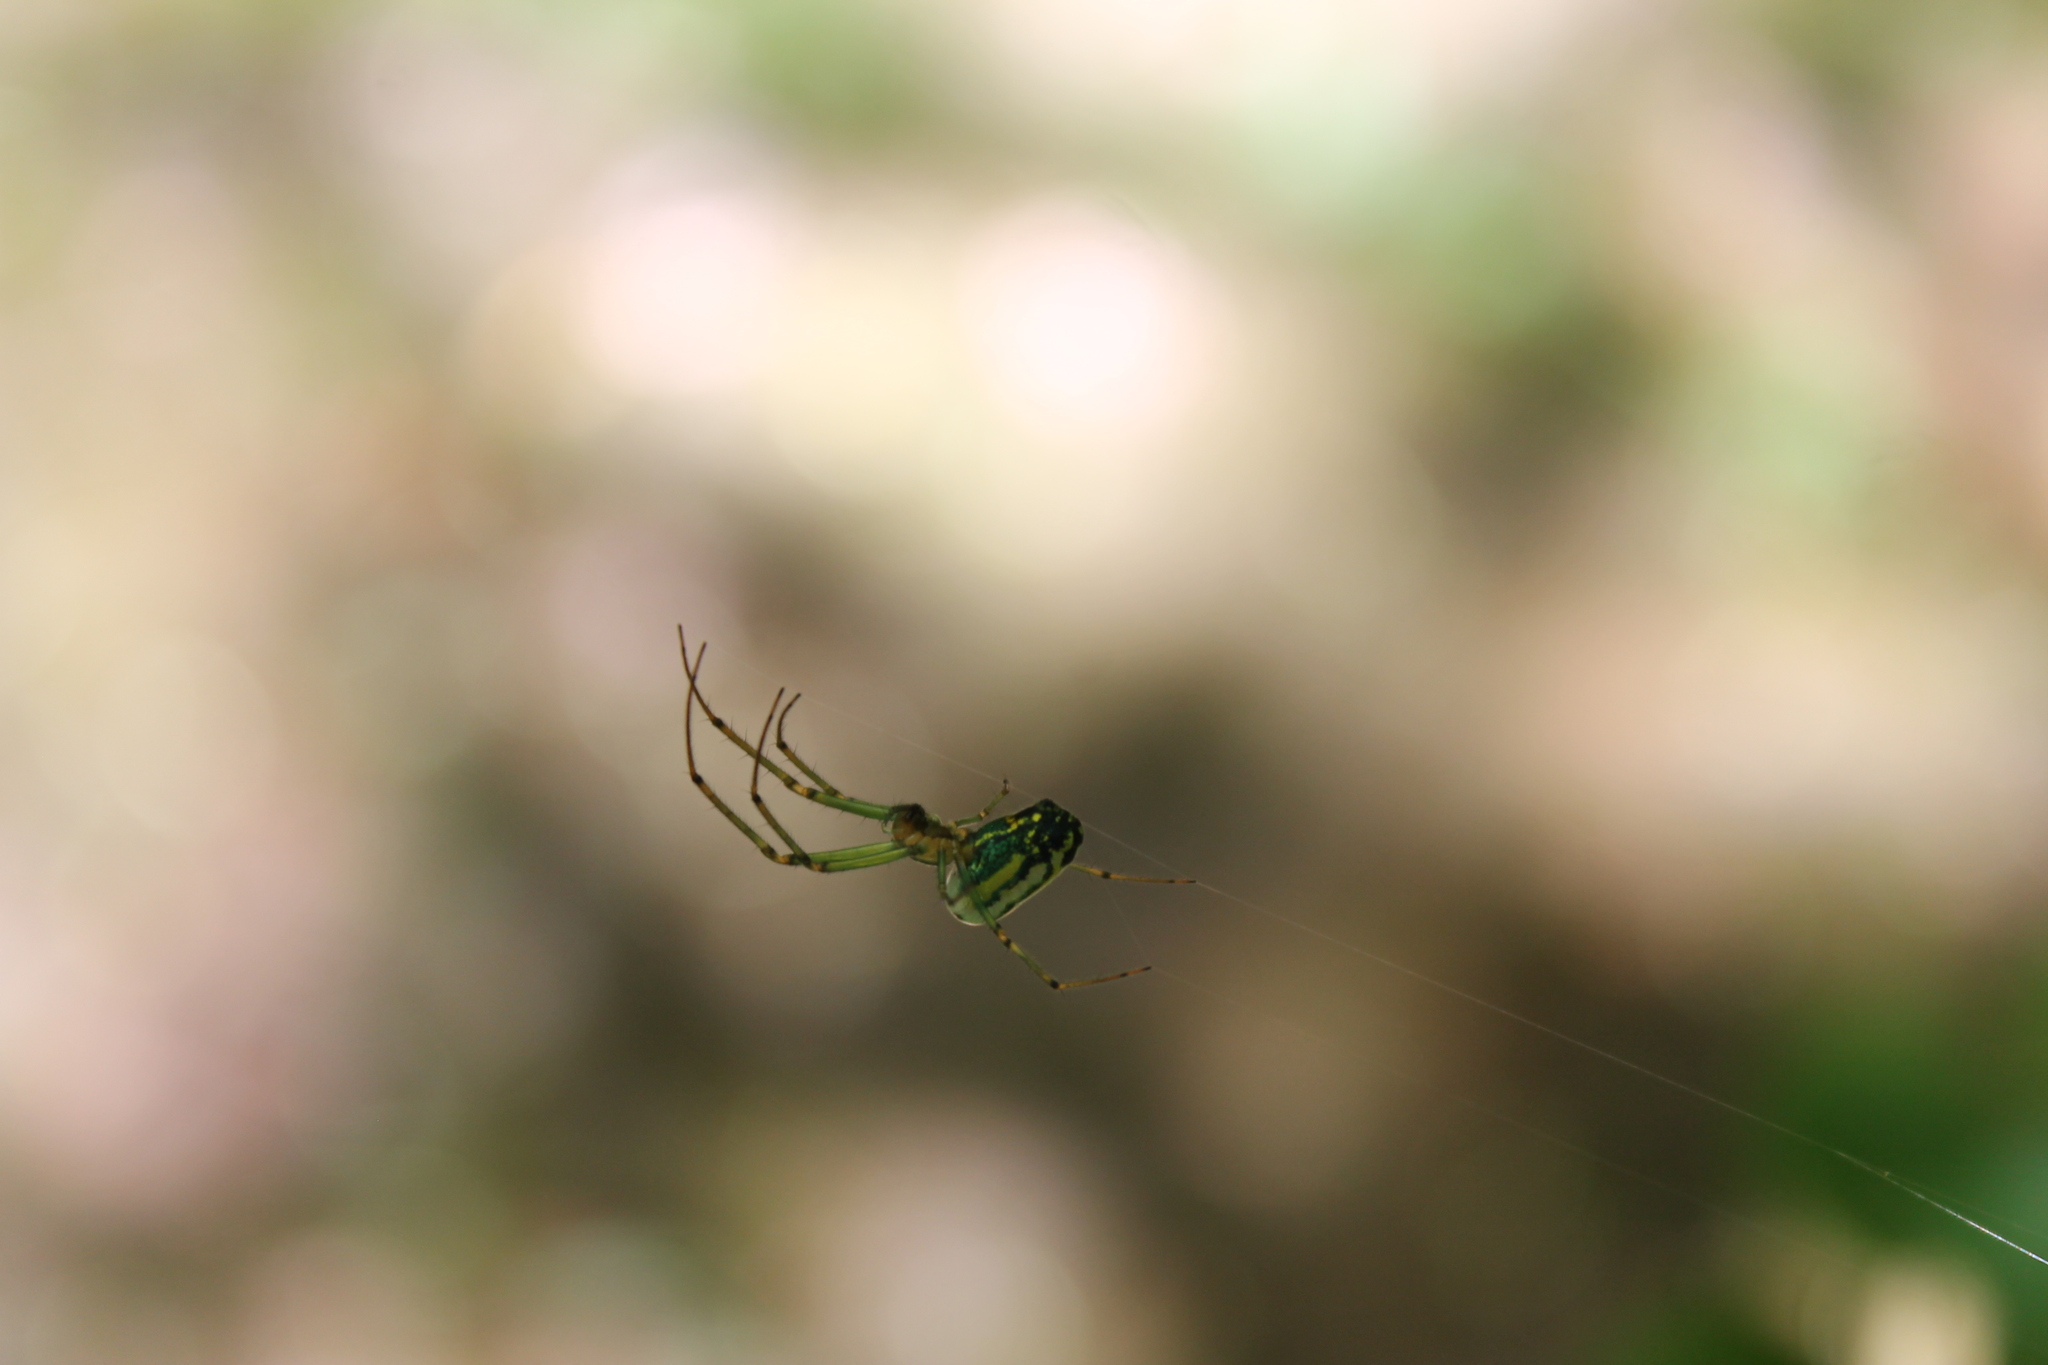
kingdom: Animalia
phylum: Arthropoda
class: Arachnida
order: Araneae
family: Tetragnathidae
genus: Leucauge
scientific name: Leucauge venusta
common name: Longjawed orb weavers
